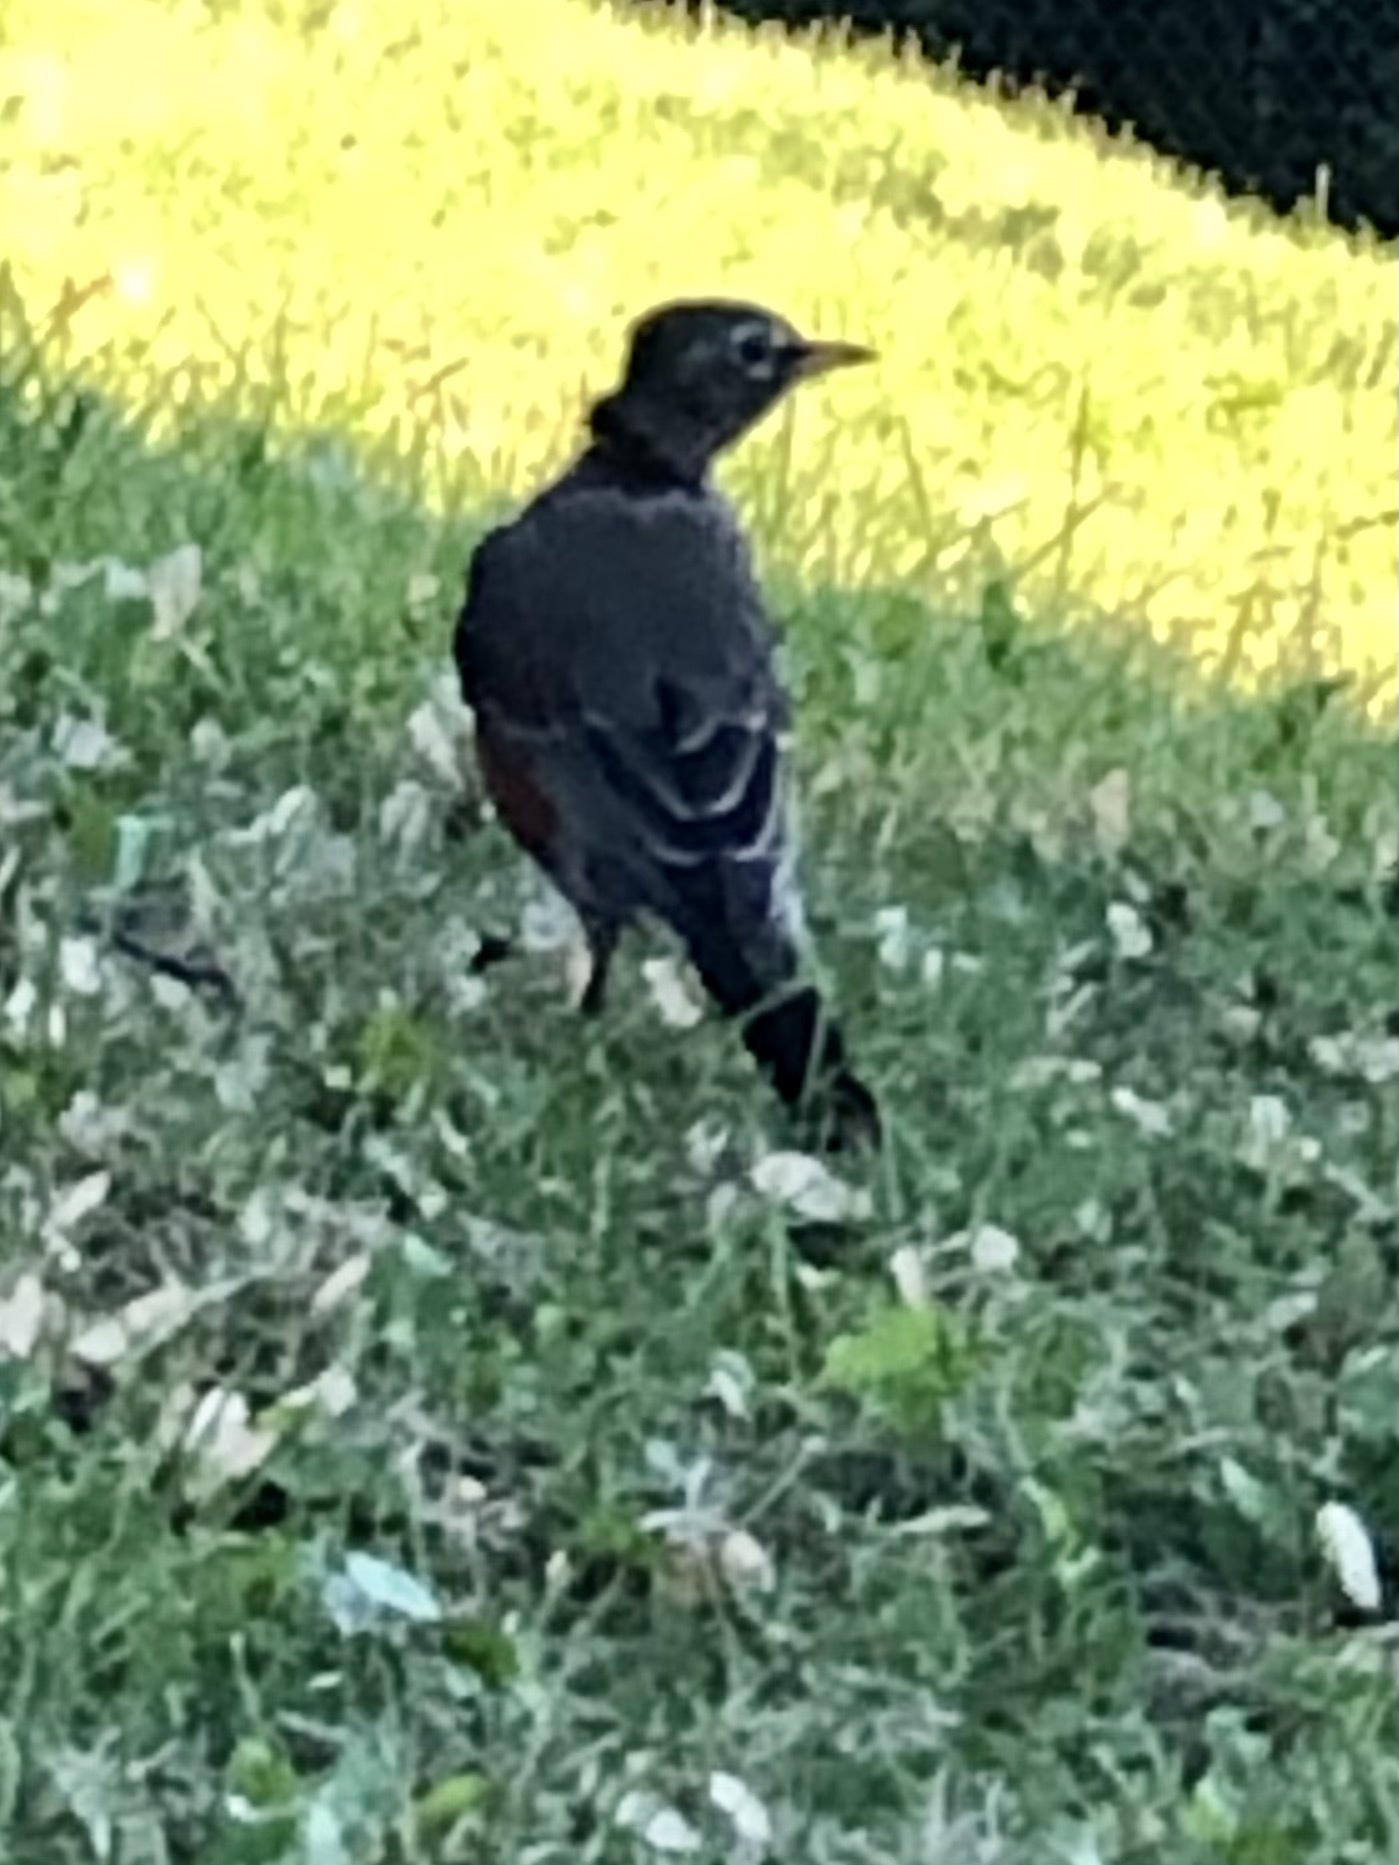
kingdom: Animalia
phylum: Chordata
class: Aves
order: Passeriformes
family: Turdidae
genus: Turdus
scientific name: Turdus migratorius
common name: American robin
